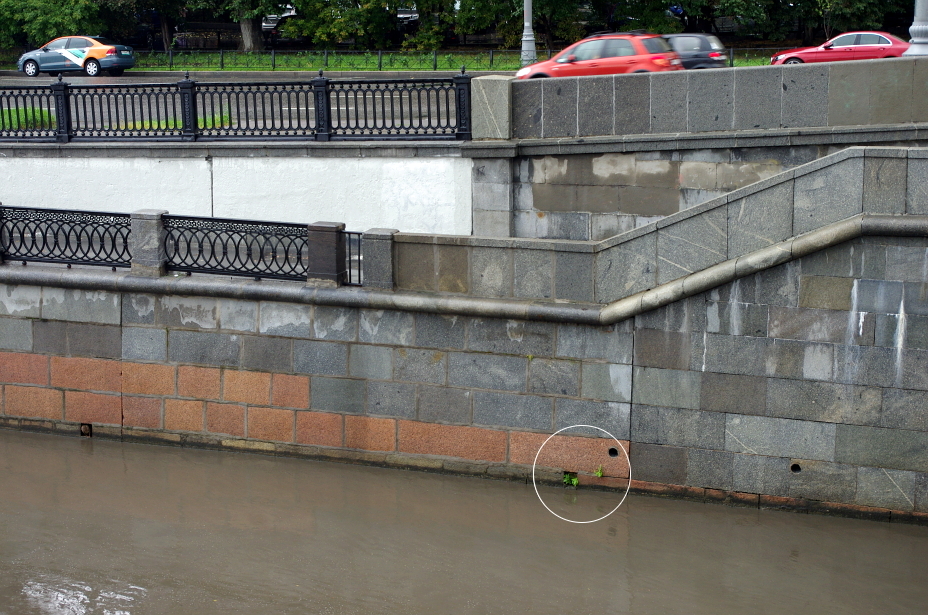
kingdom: Plantae
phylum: Tracheophyta
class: Magnoliopsida
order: Asterales
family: Asteraceae
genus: Taraxacum
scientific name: Taraxacum officinale
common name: Common dandelion
